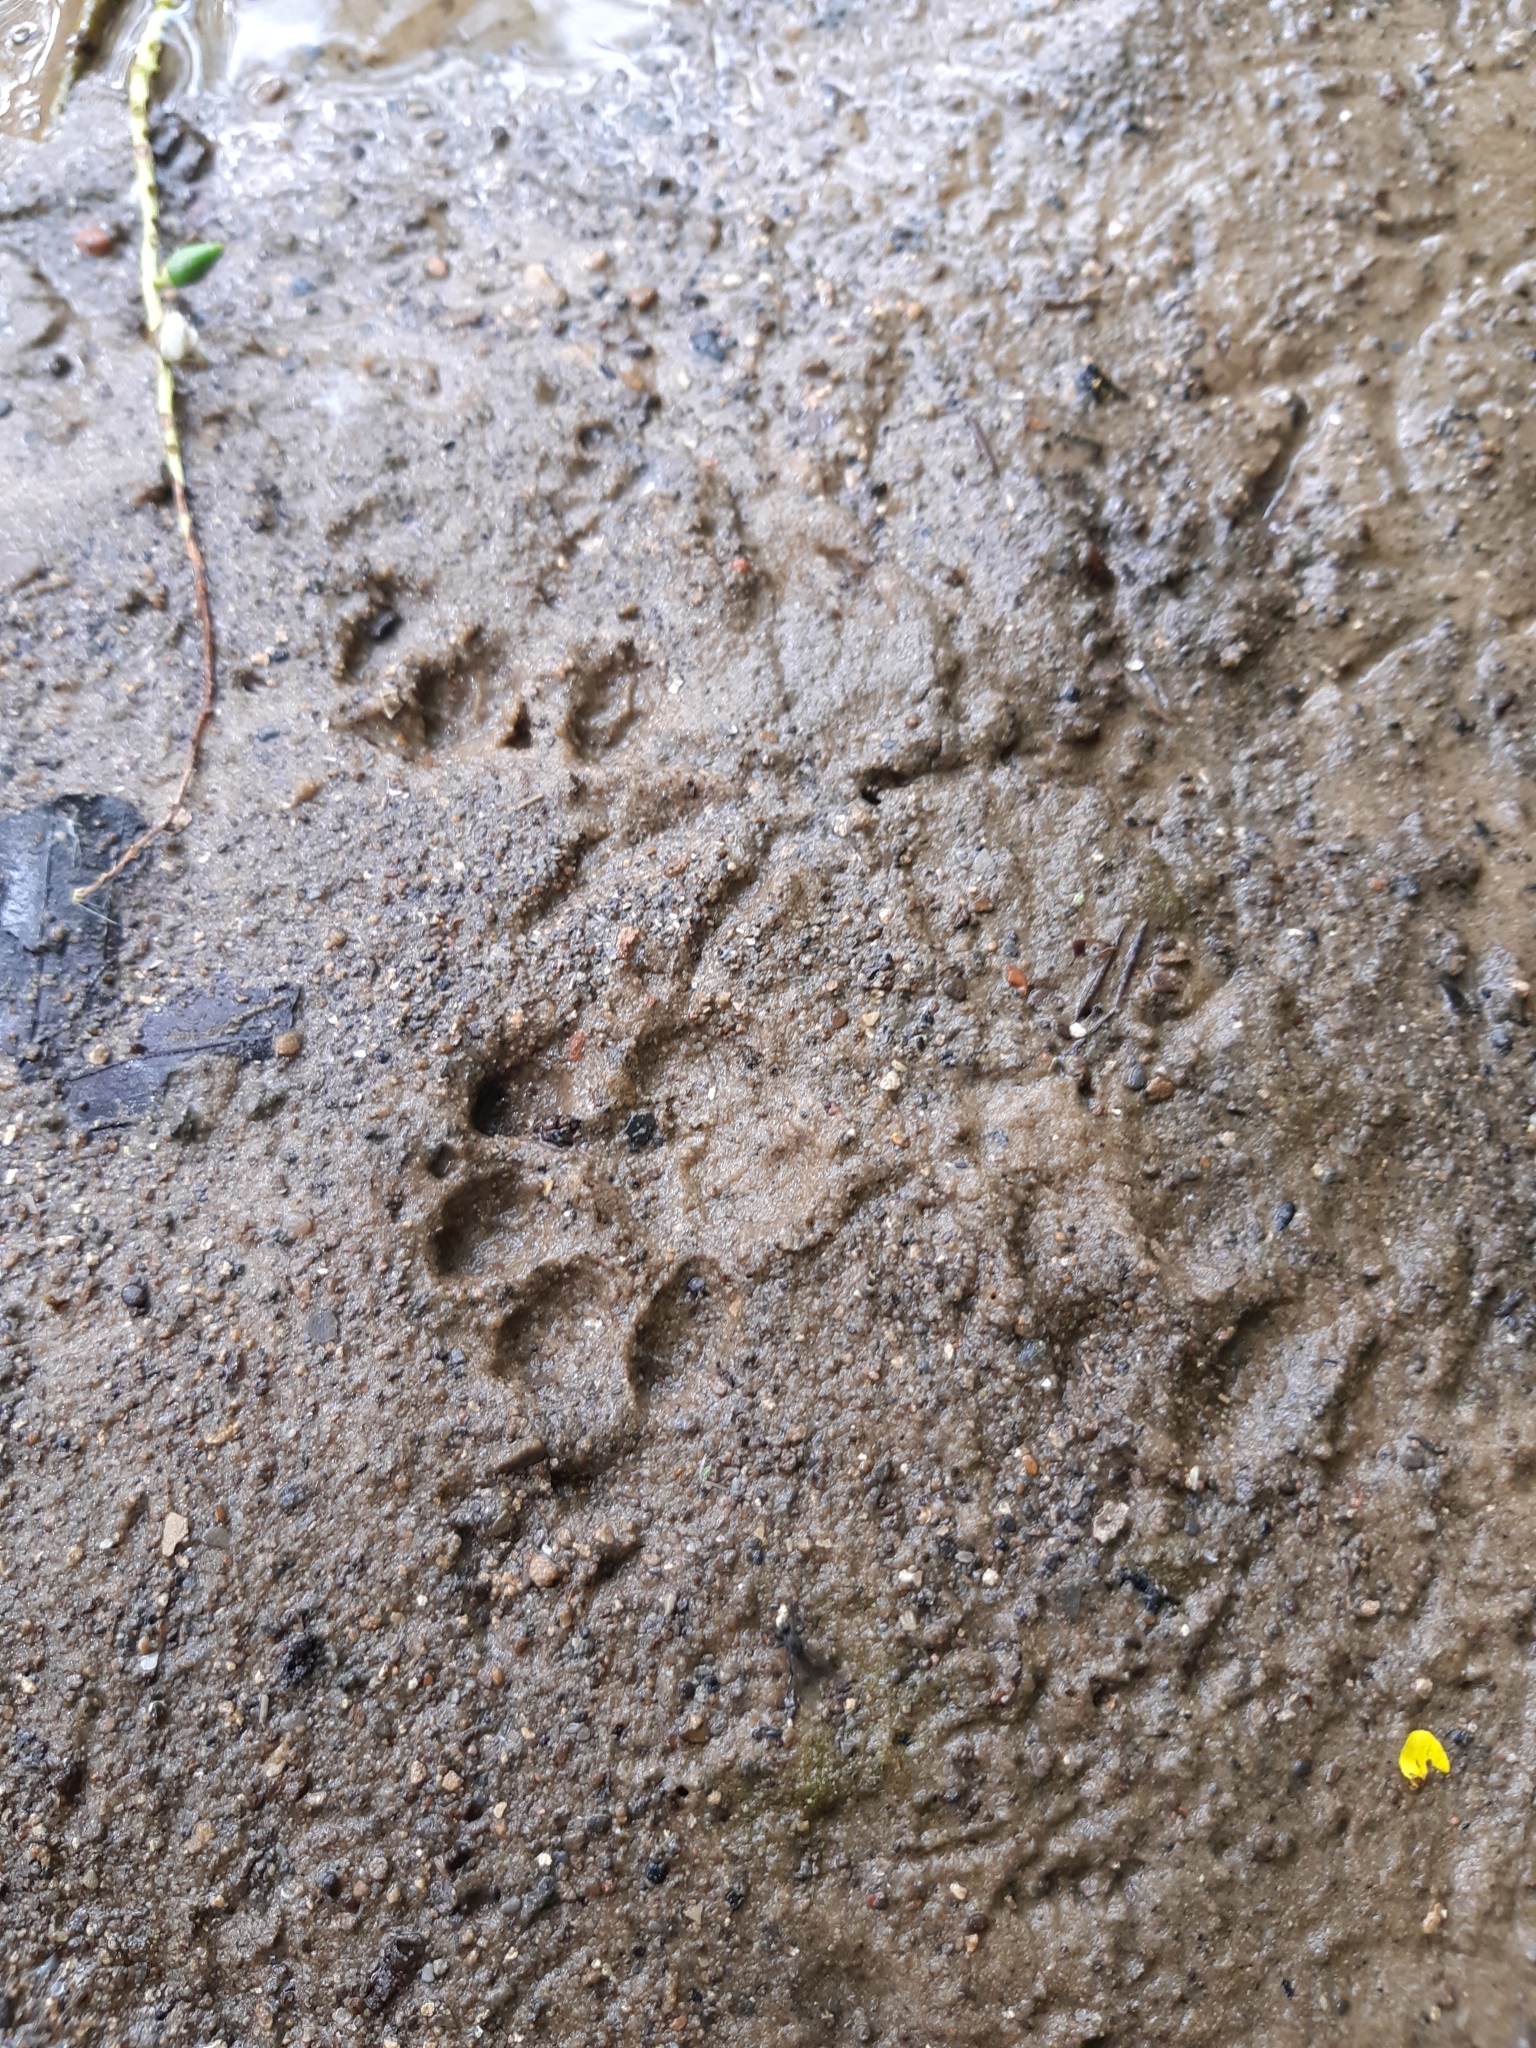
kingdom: Animalia
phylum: Chordata
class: Mammalia
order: Carnivora
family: Felidae
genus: Felis
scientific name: Felis catus
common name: Domestic cat
